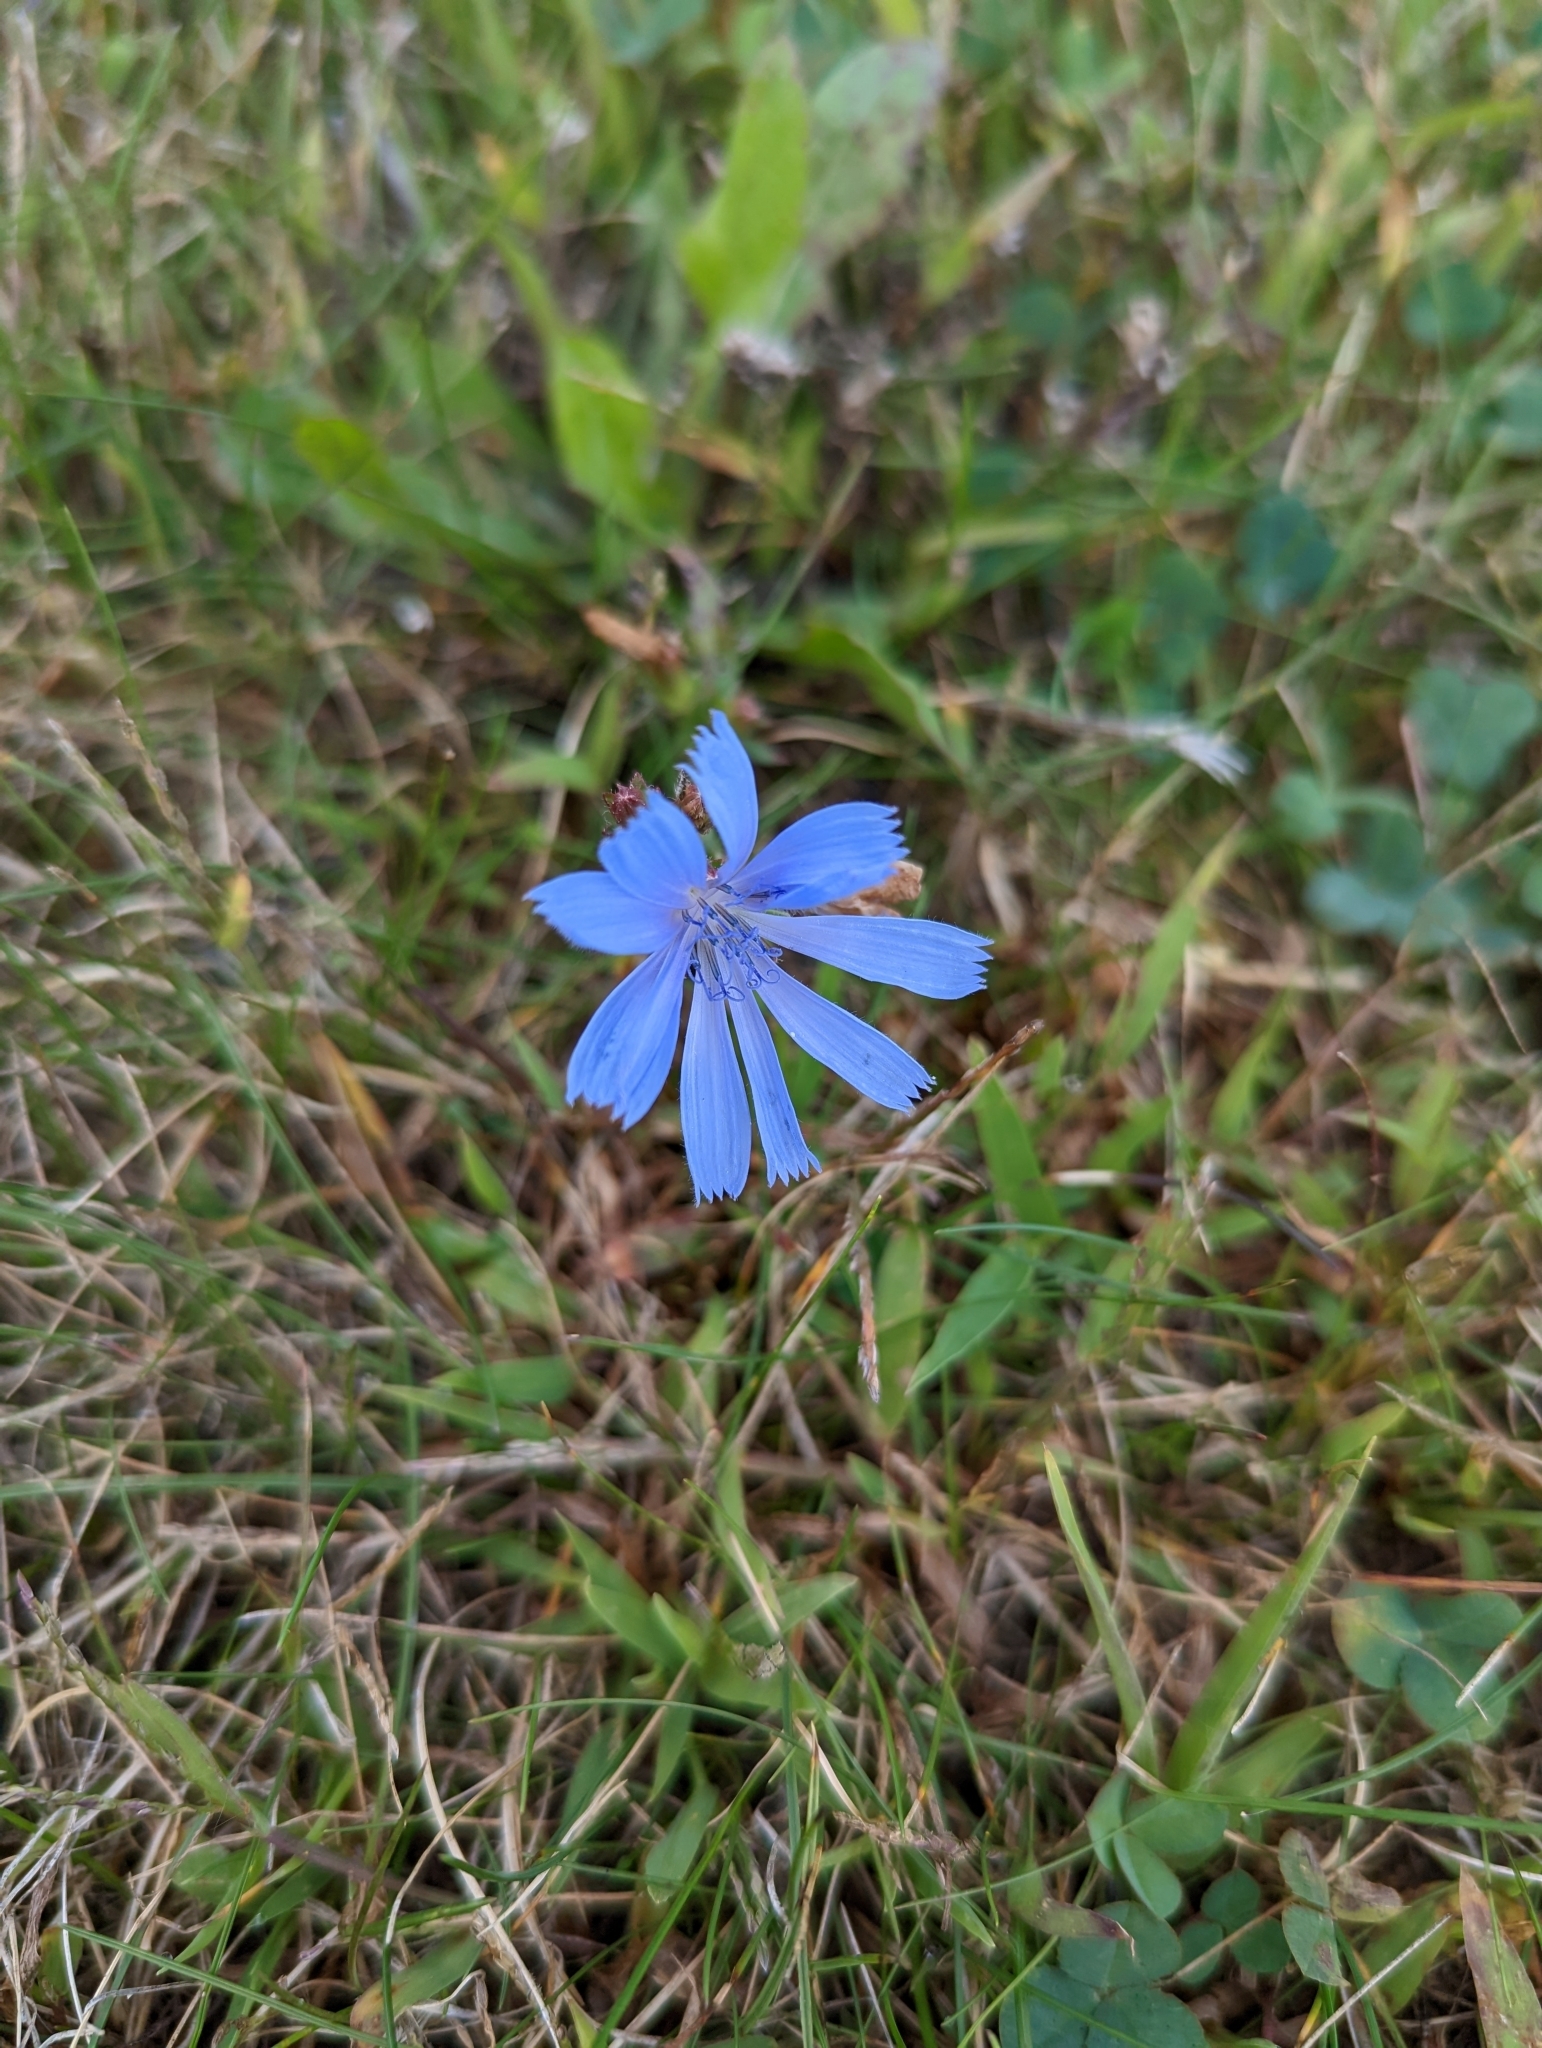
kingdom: Plantae
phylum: Tracheophyta
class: Magnoliopsida
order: Asterales
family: Asteraceae
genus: Cichorium
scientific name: Cichorium intybus
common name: Chicory
